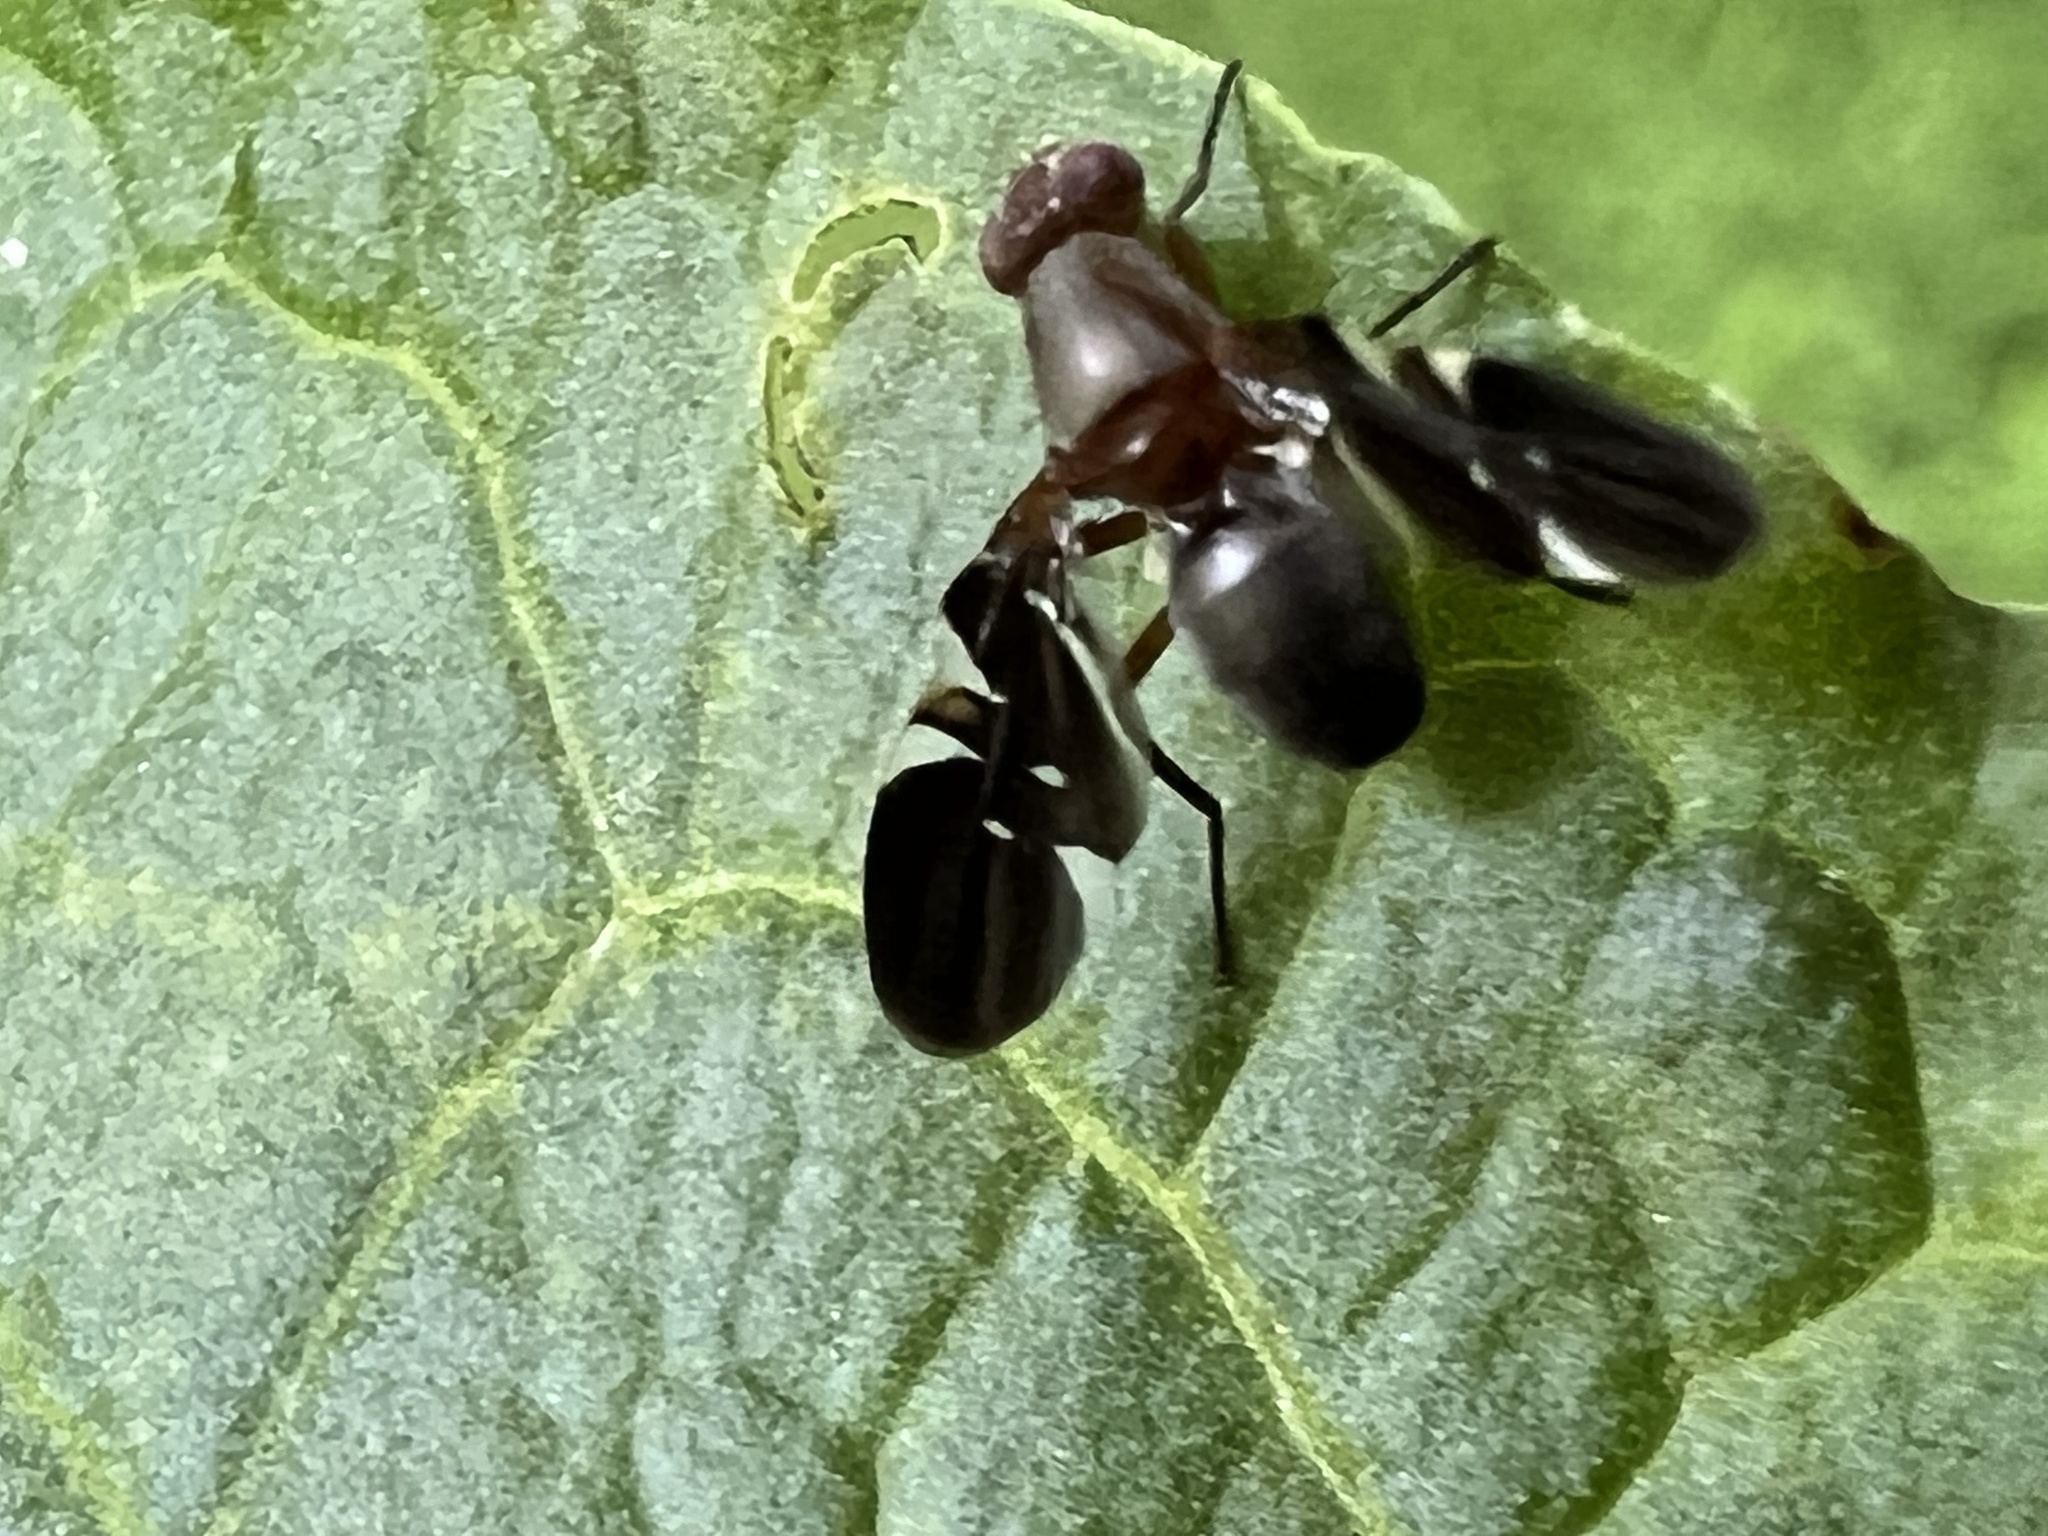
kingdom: Animalia
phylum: Arthropoda
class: Insecta
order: Diptera
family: Ulidiidae
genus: Delphinia
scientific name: Delphinia picta
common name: Common picture-winged fly
